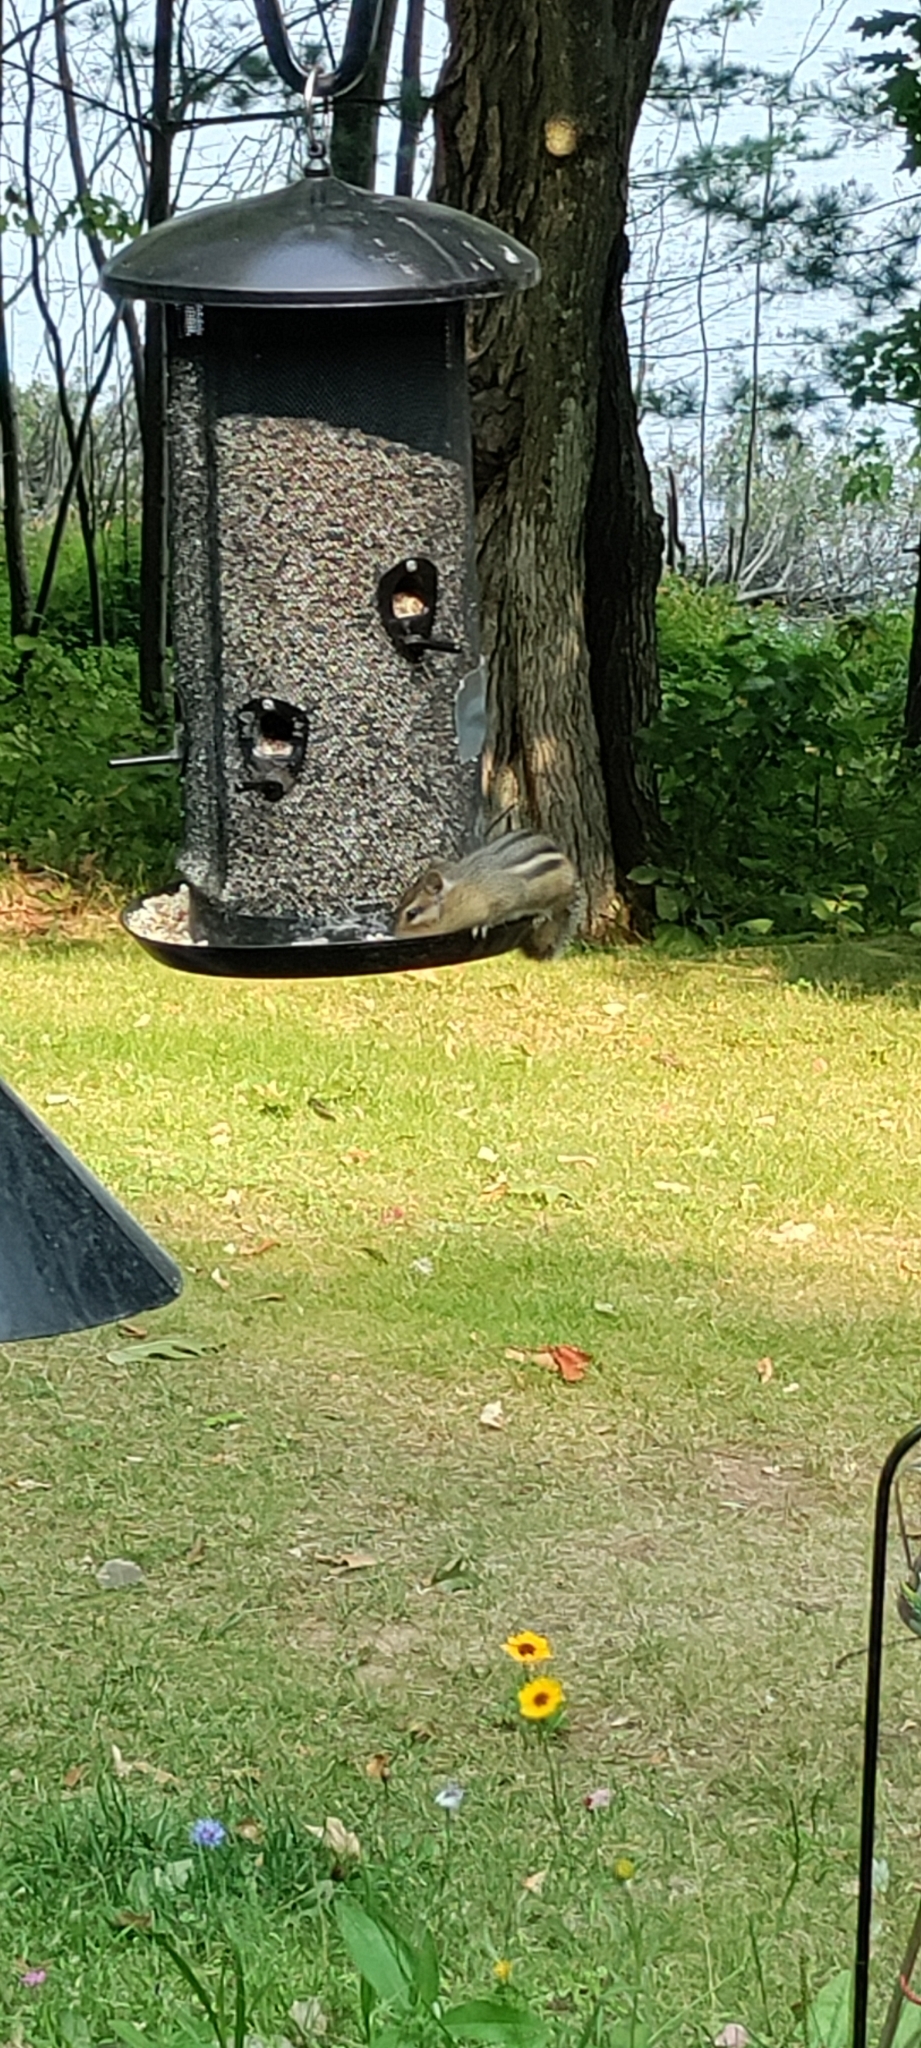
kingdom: Animalia
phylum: Chordata
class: Mammalia
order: Rodentia
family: Sciuridae
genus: Tamias
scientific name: Tamias striatus
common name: Eastern chipmunk
